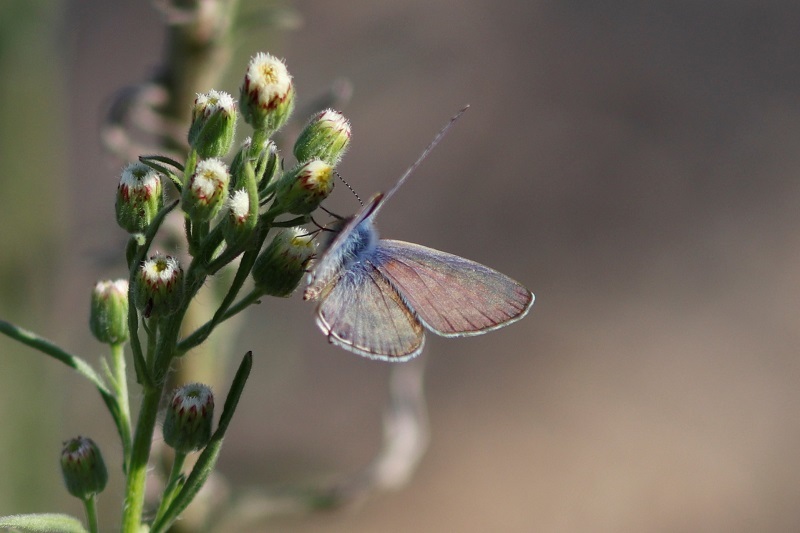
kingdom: Animalia
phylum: Arthropoda
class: Insecta
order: Lepidoptera
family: Lycaenidae
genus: Leptotes
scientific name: Leptotes
